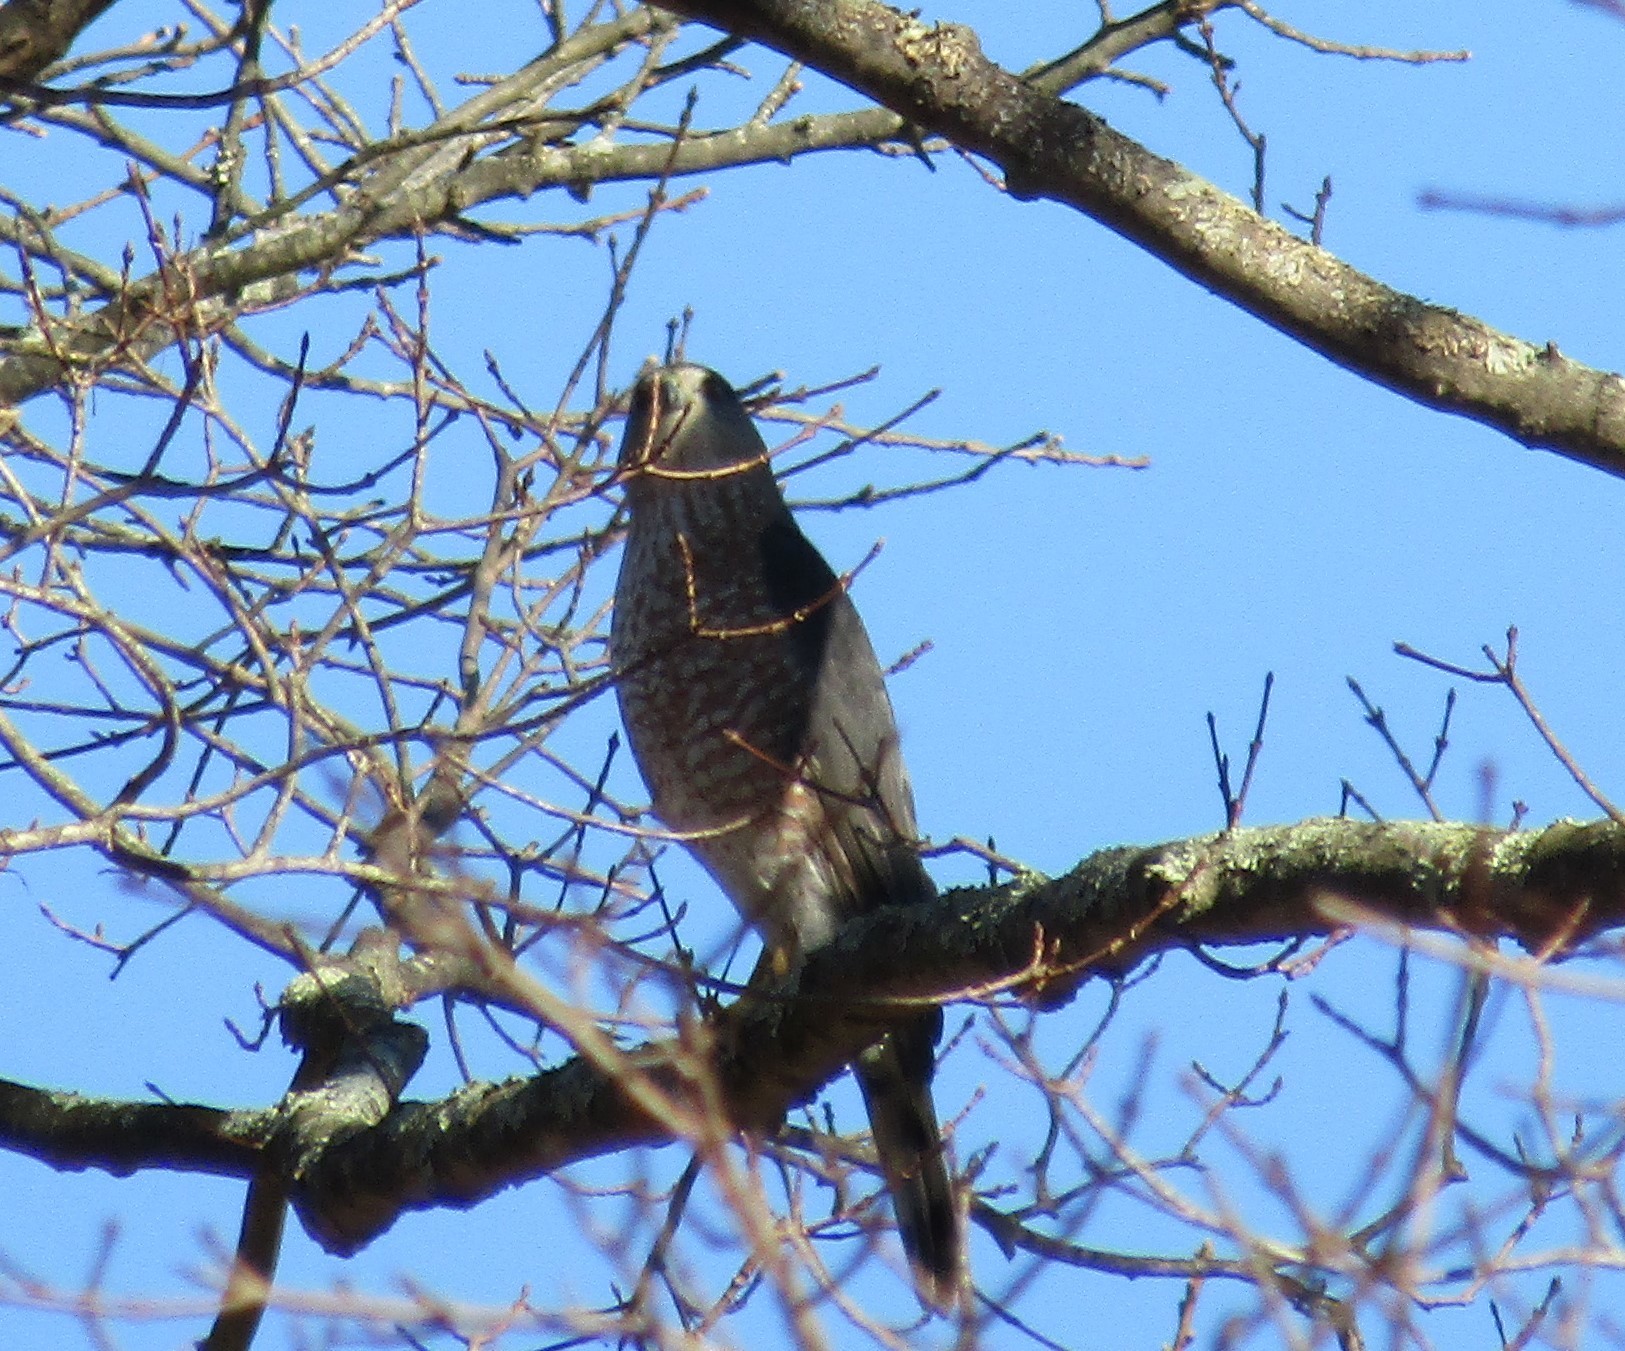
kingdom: Animalia
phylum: Chordata
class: Aves
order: Accipitriformes
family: Accipitridae
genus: Accipiter
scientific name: Accipiter cooperii
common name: Cooper's hawk
